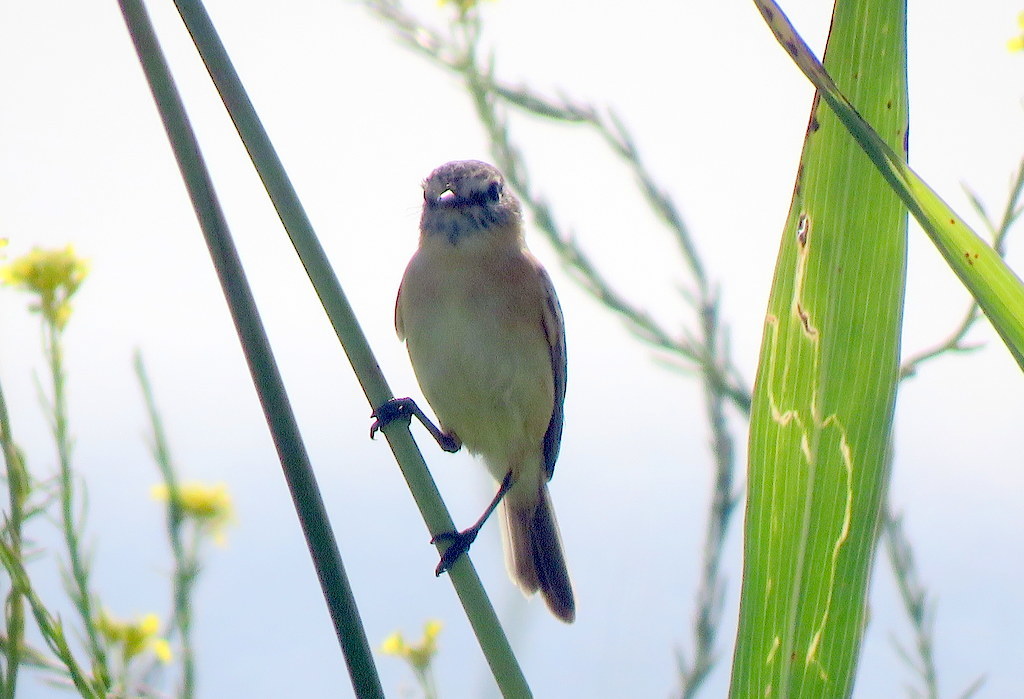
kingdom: Animalia
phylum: Chordata
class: Aves
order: Passeriformes
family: Tyrannidae
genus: Polystictus
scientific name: Polystictus pectoralis
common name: Bearded tachuri
